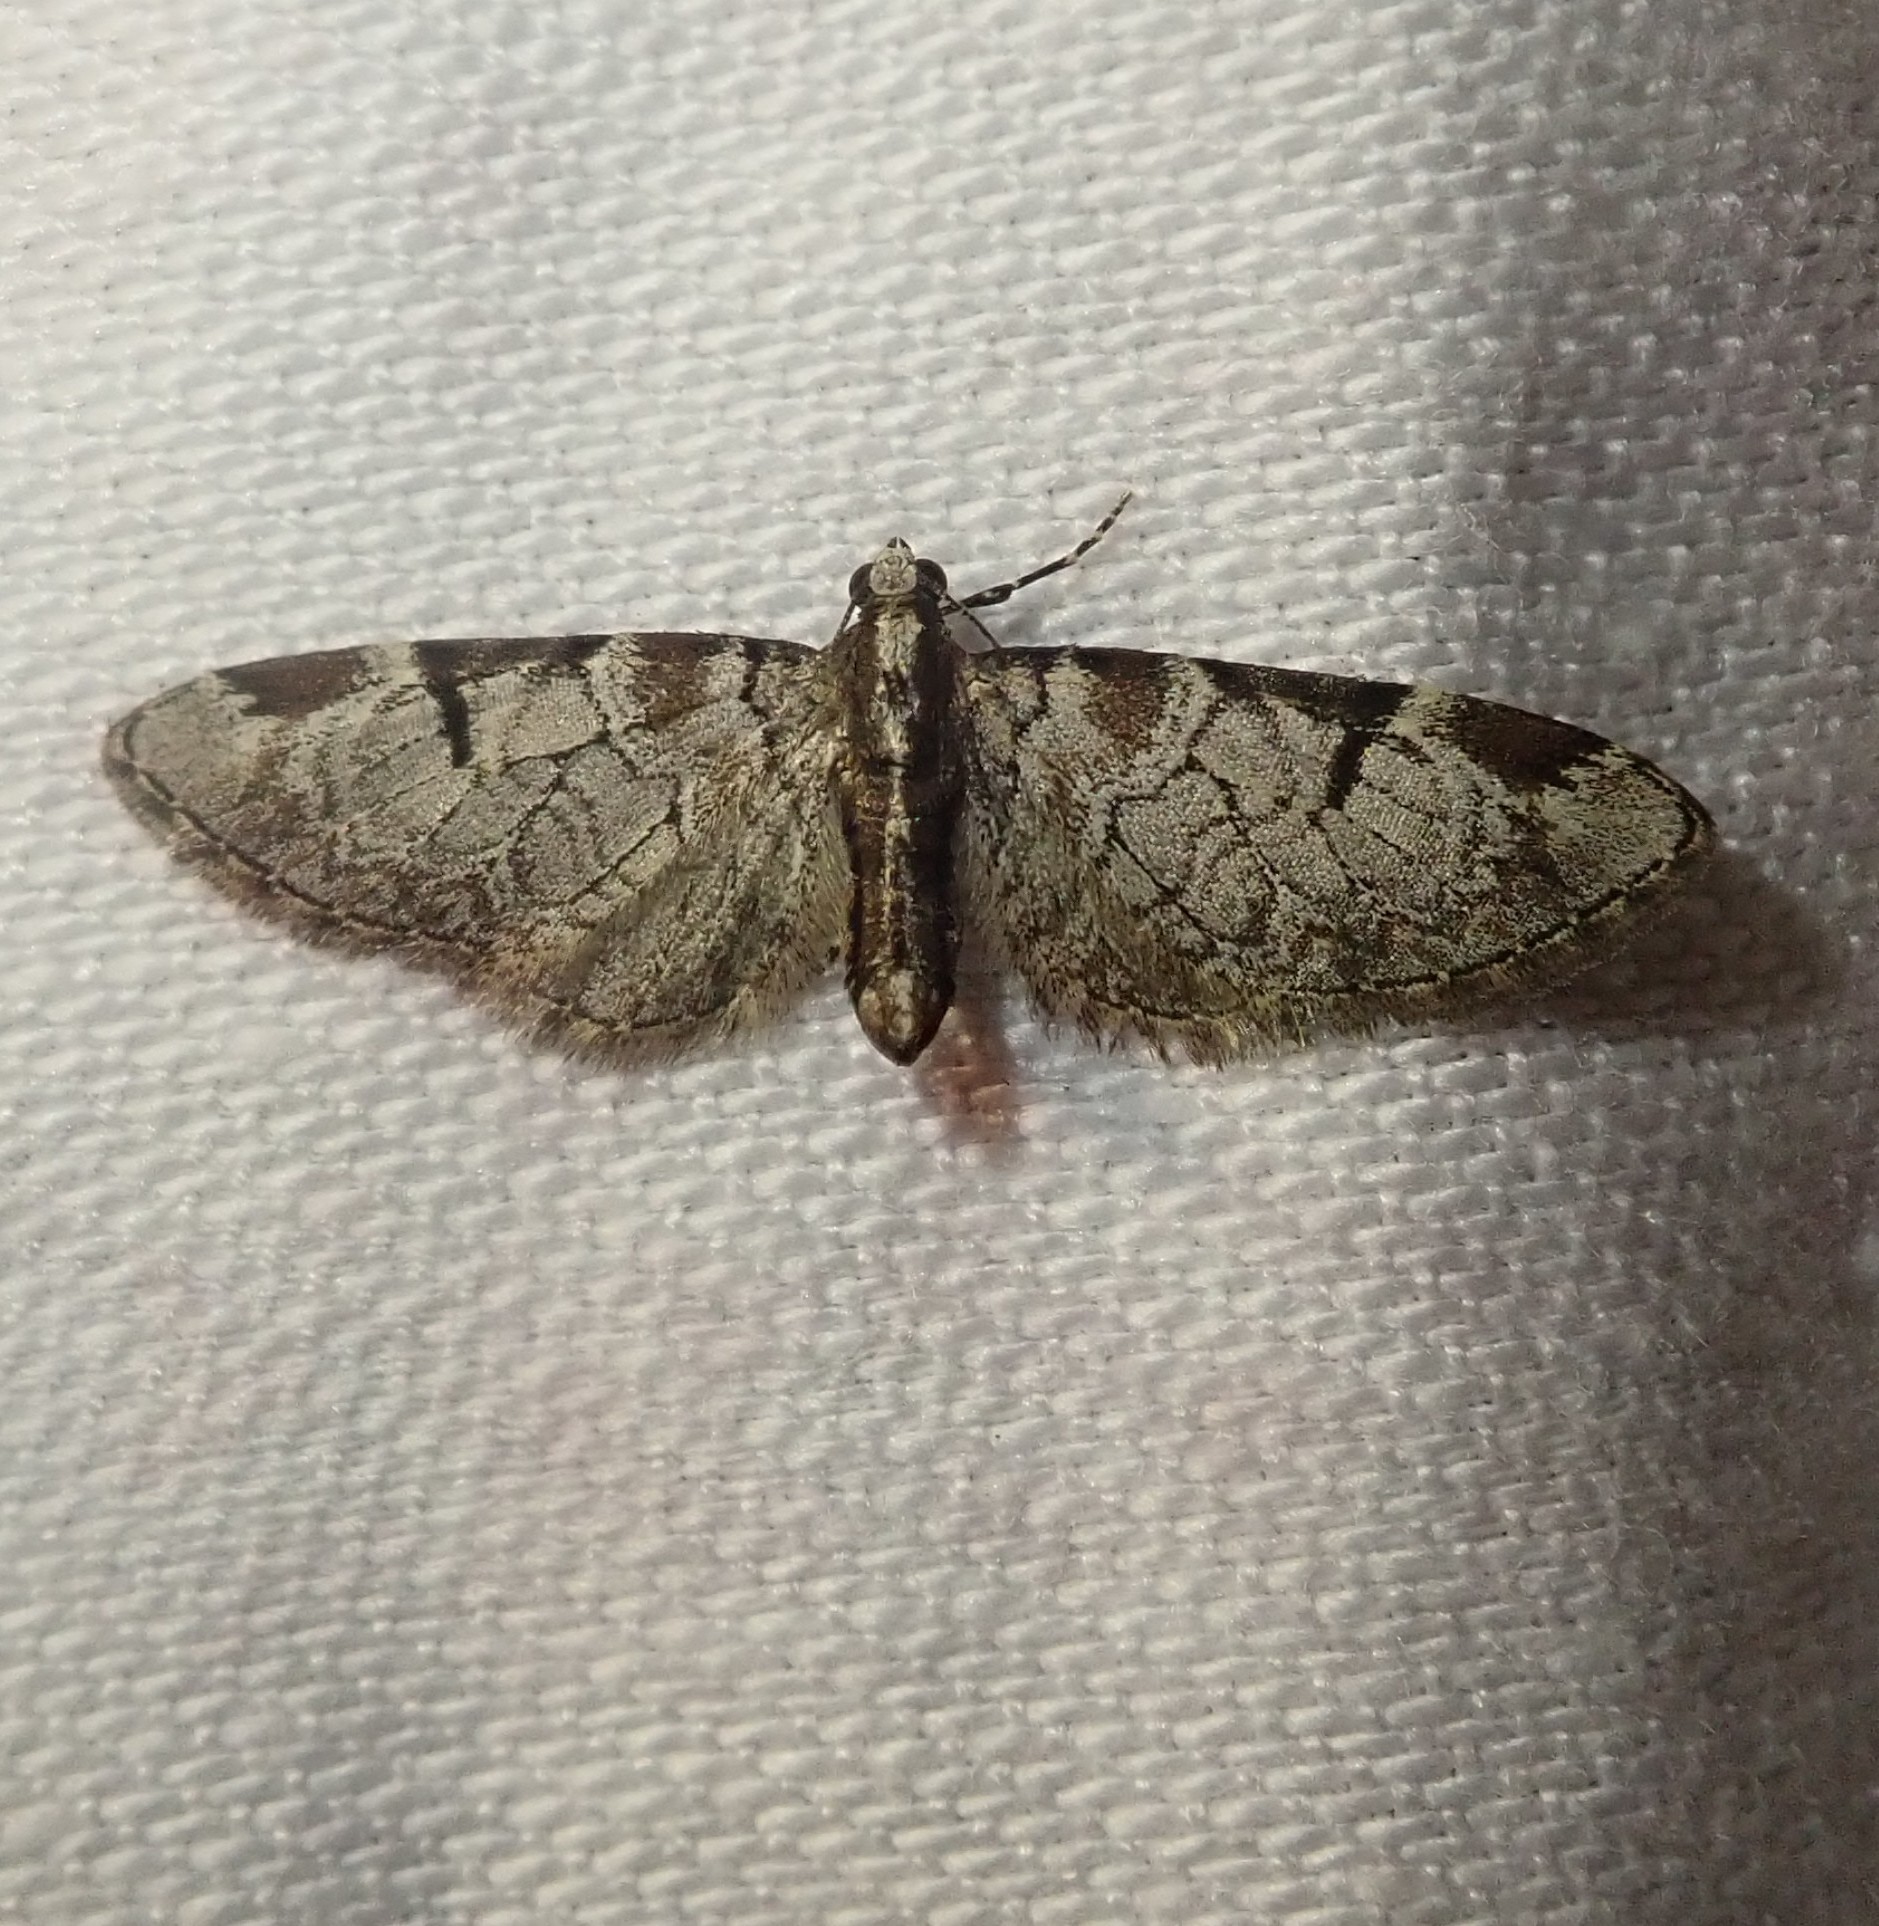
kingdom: Animalia
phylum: Arthropoda
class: Insecta
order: Lepidoptera
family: Geometridae
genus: Eupithecia
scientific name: Eupithecia insigniata
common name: Pinion-spotted pug
